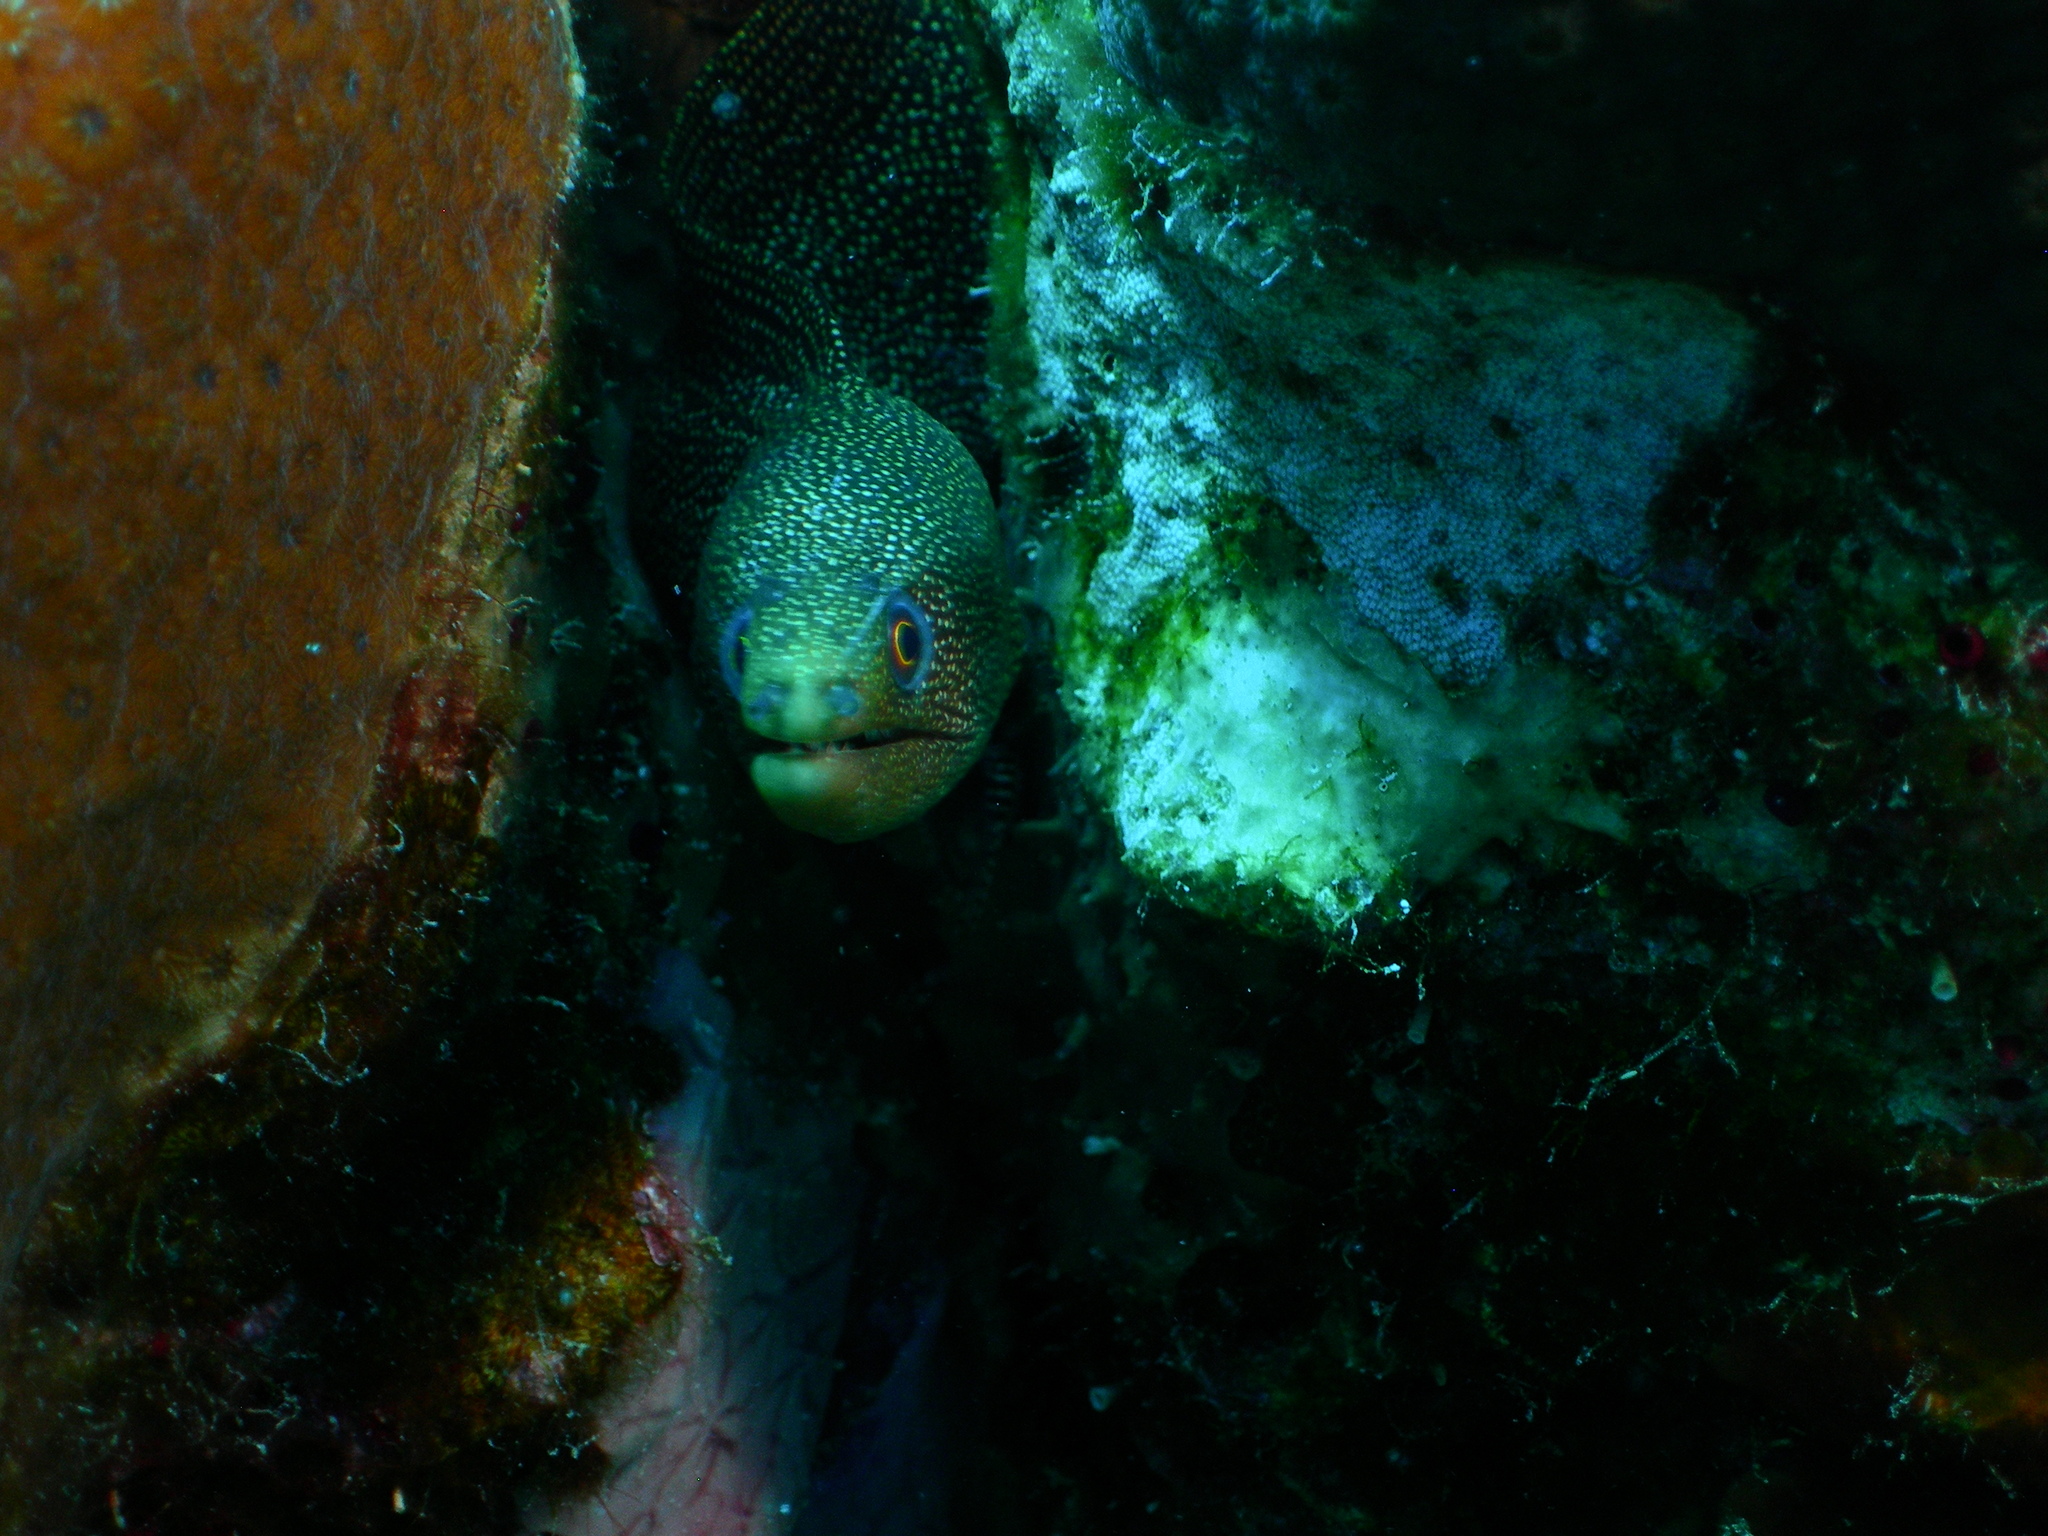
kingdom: Animalia
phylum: Chordata
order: Anguilliformes
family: Muraenidae
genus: Gymnothorax
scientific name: Gymnothorax miliaris
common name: Goldentail moray
